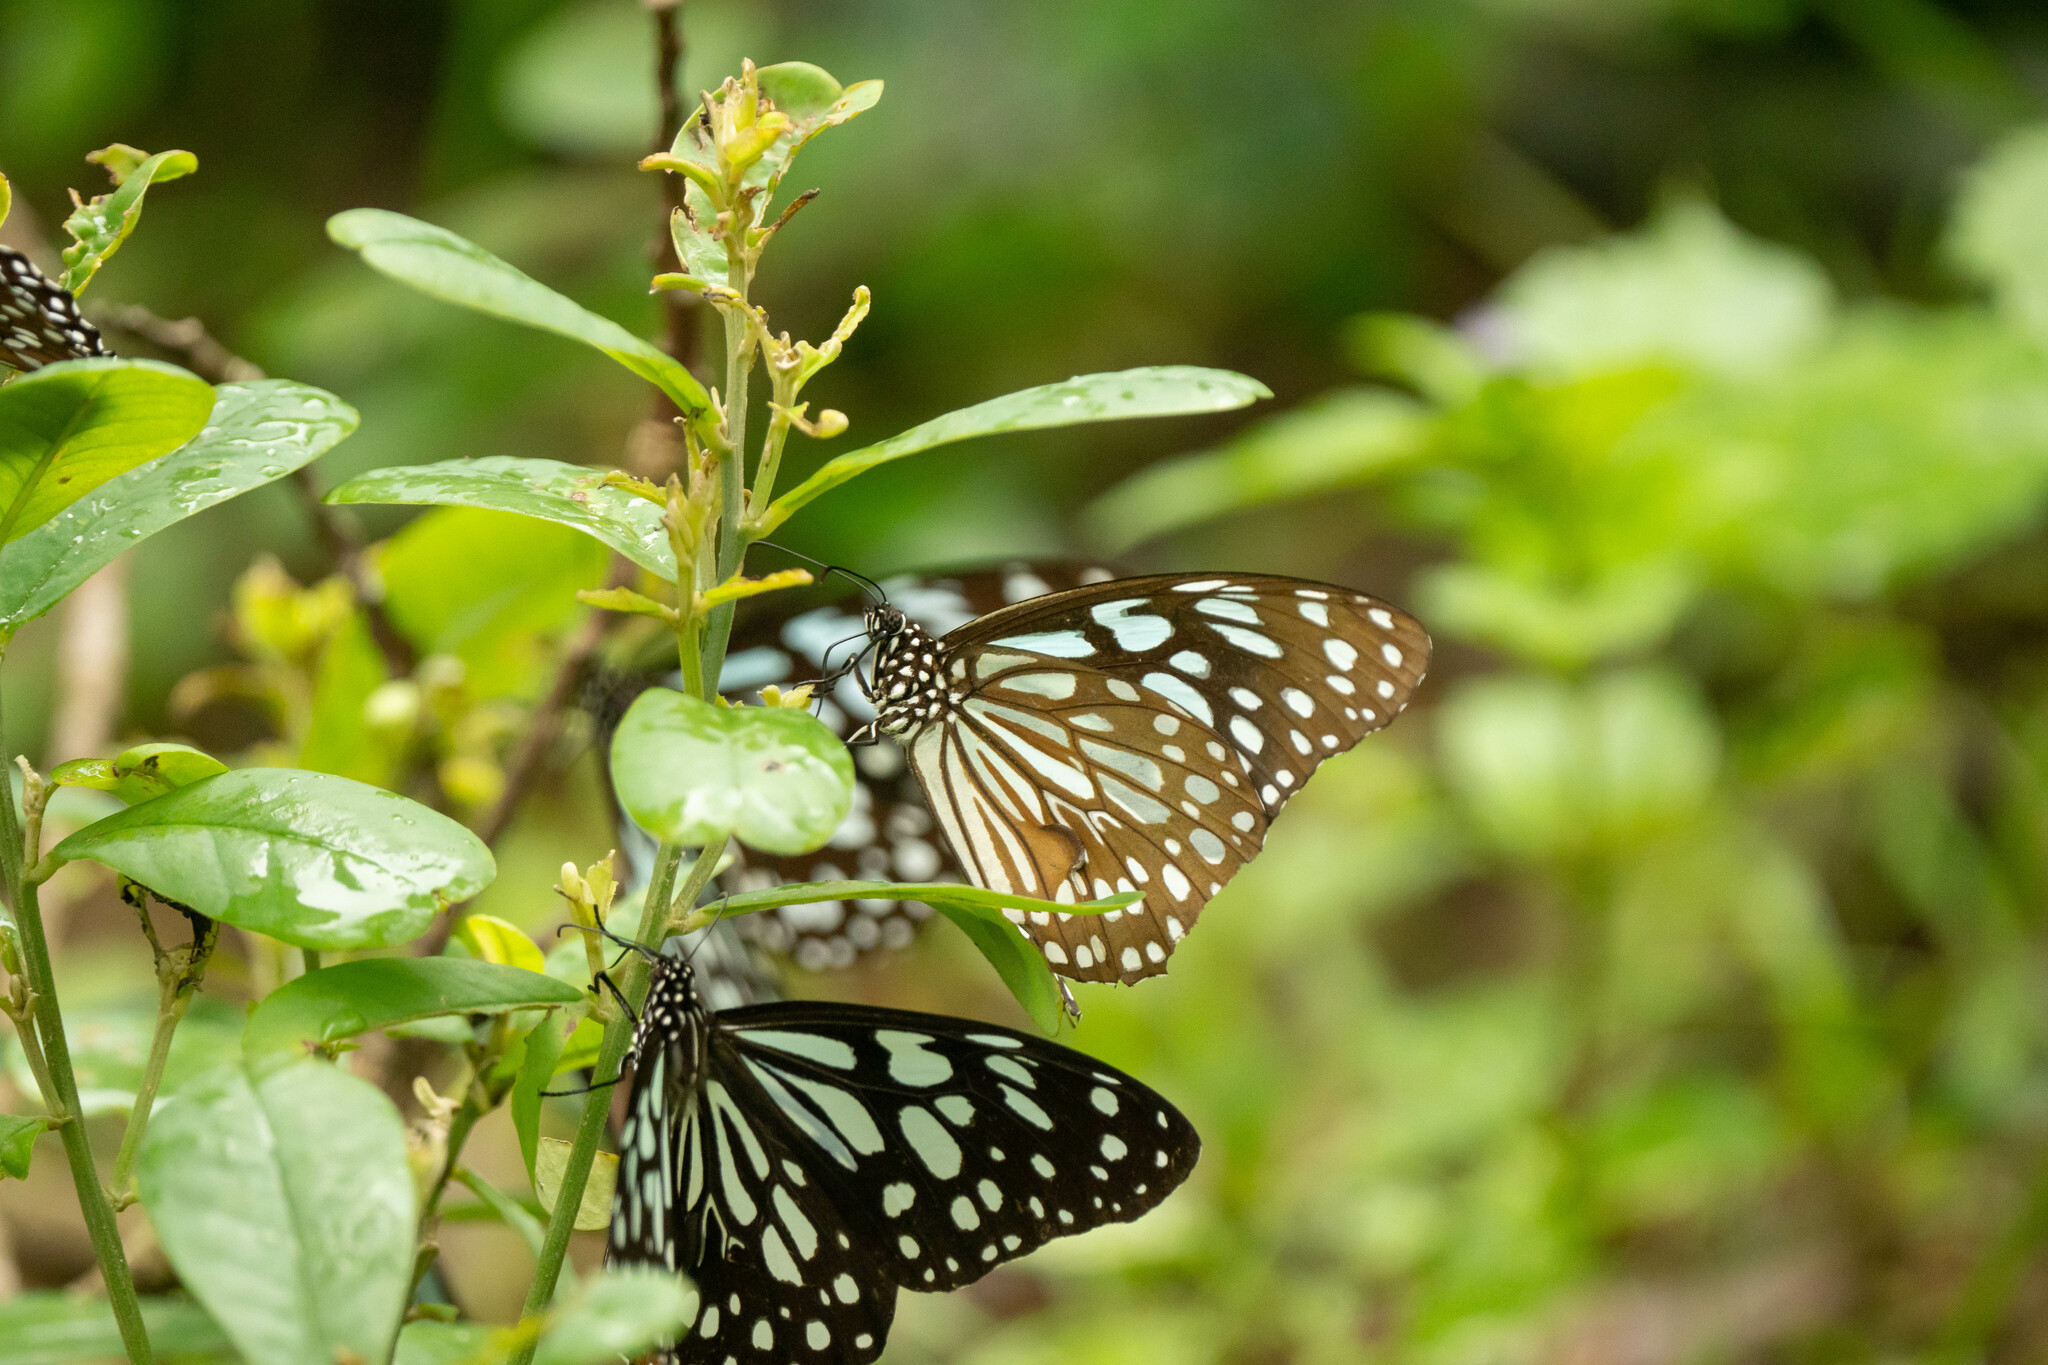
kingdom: Animalia
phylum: Arthropoda
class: Insecta
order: Lepidoptera
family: Nymphalidae
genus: Tirumala
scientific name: Tirumala limniace
